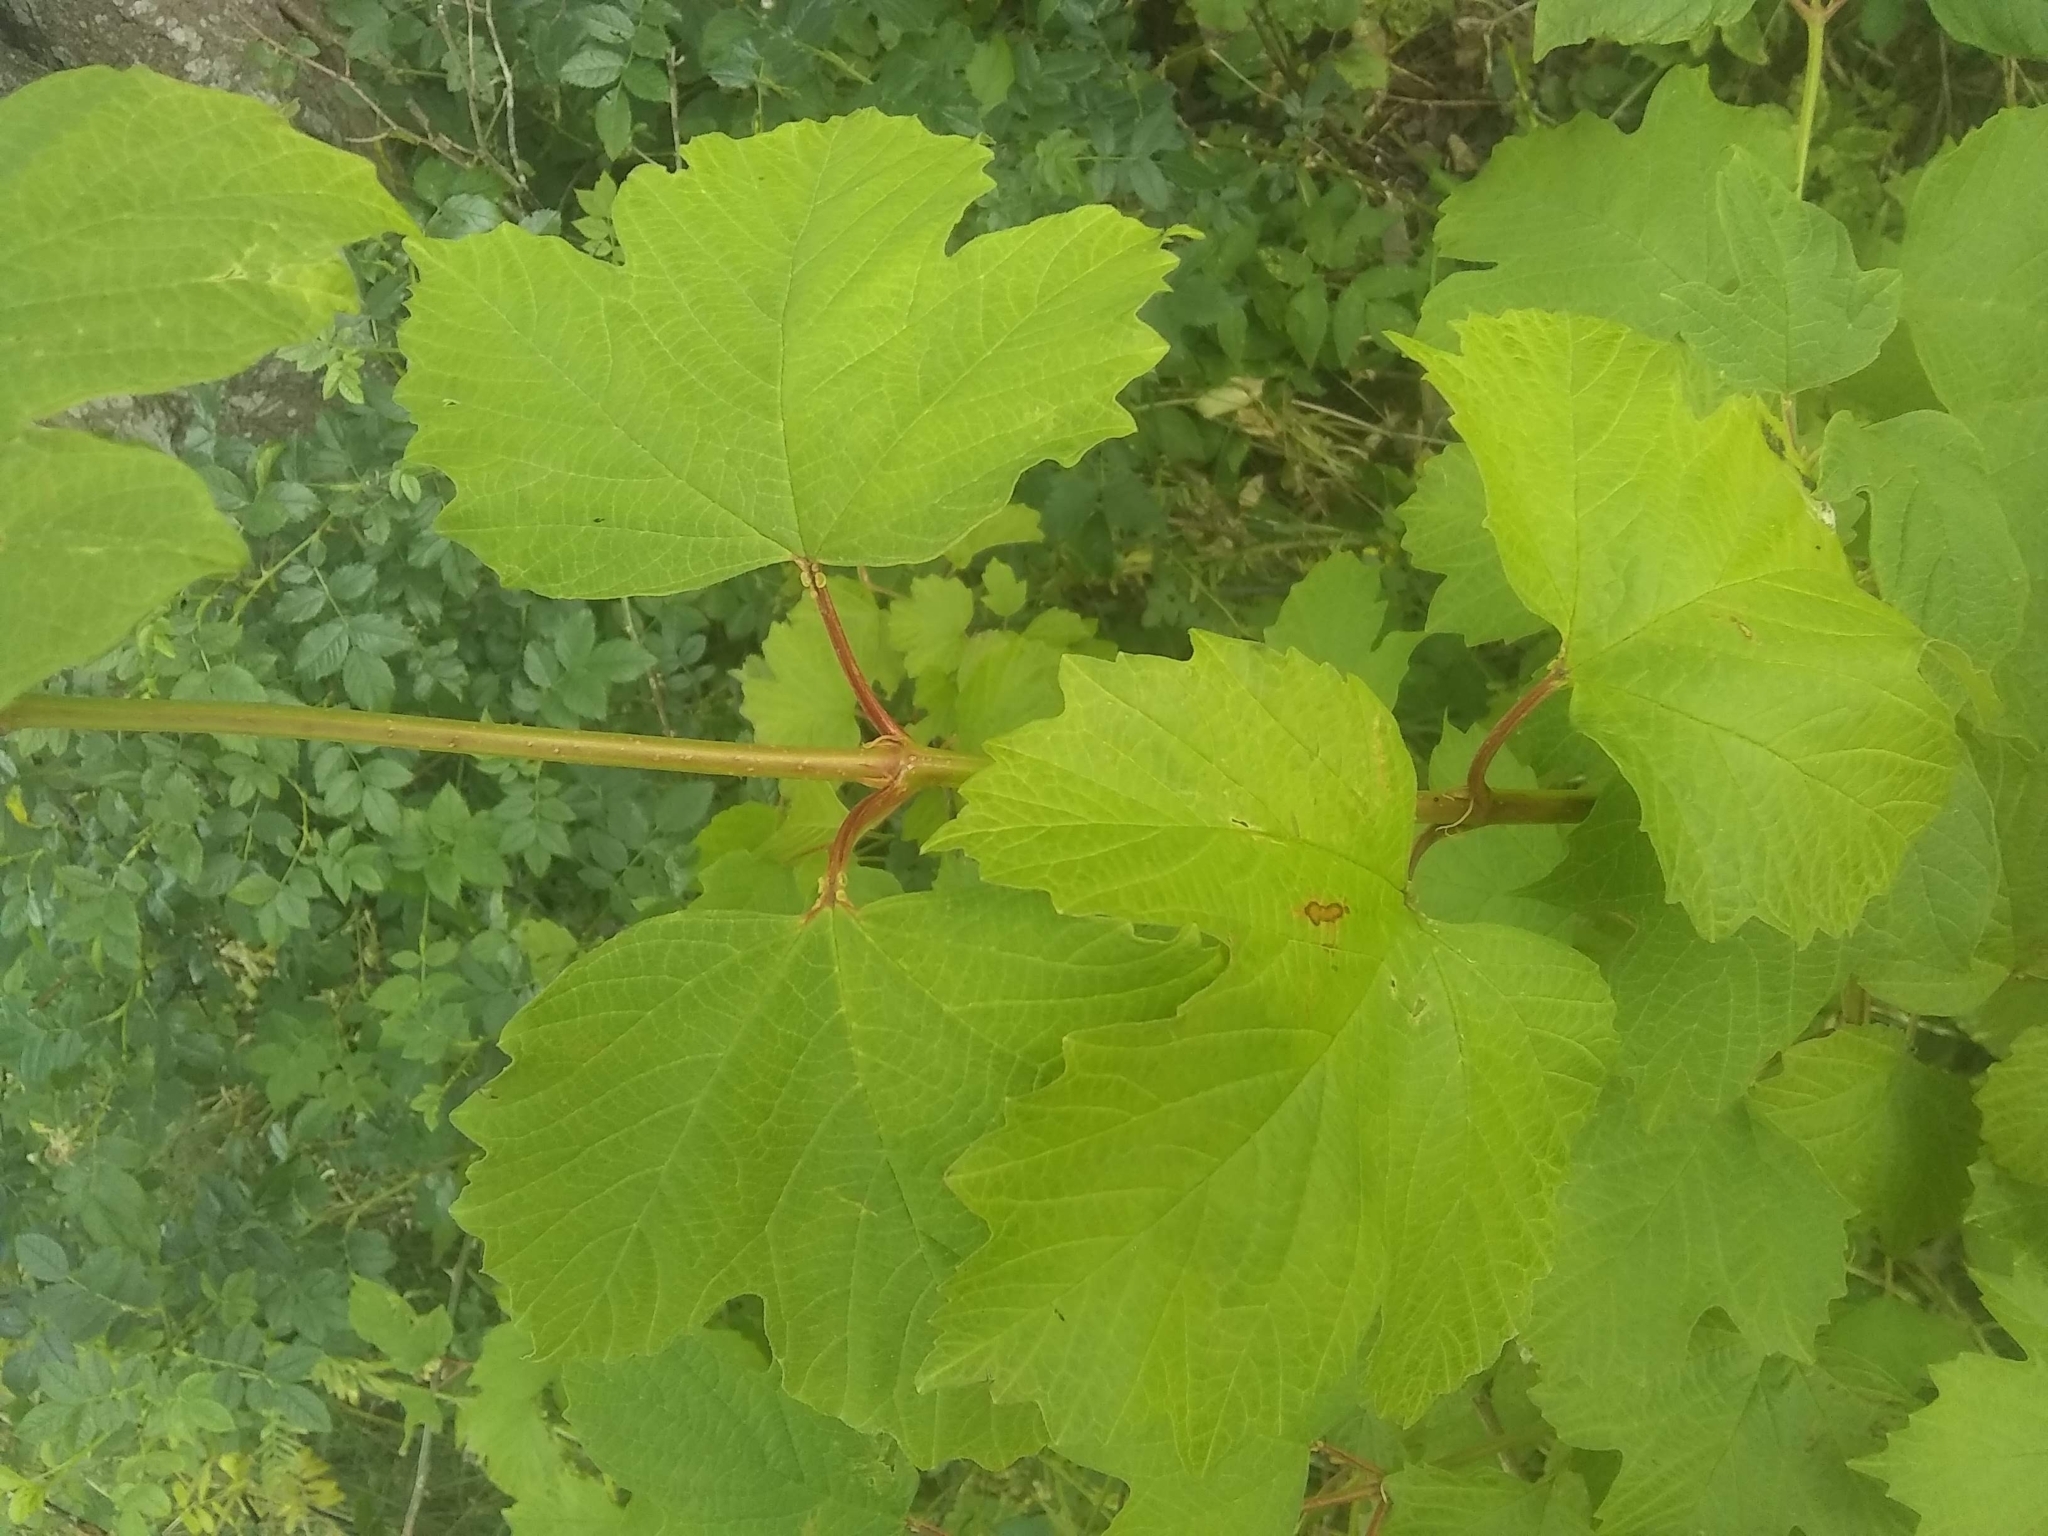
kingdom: Plantae
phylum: Tracheophyta
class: Magnoliopsida
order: Dipsacales
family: Viburnaceae
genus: Viburnum
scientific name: Viburnum opulus
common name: Guelder-rose
